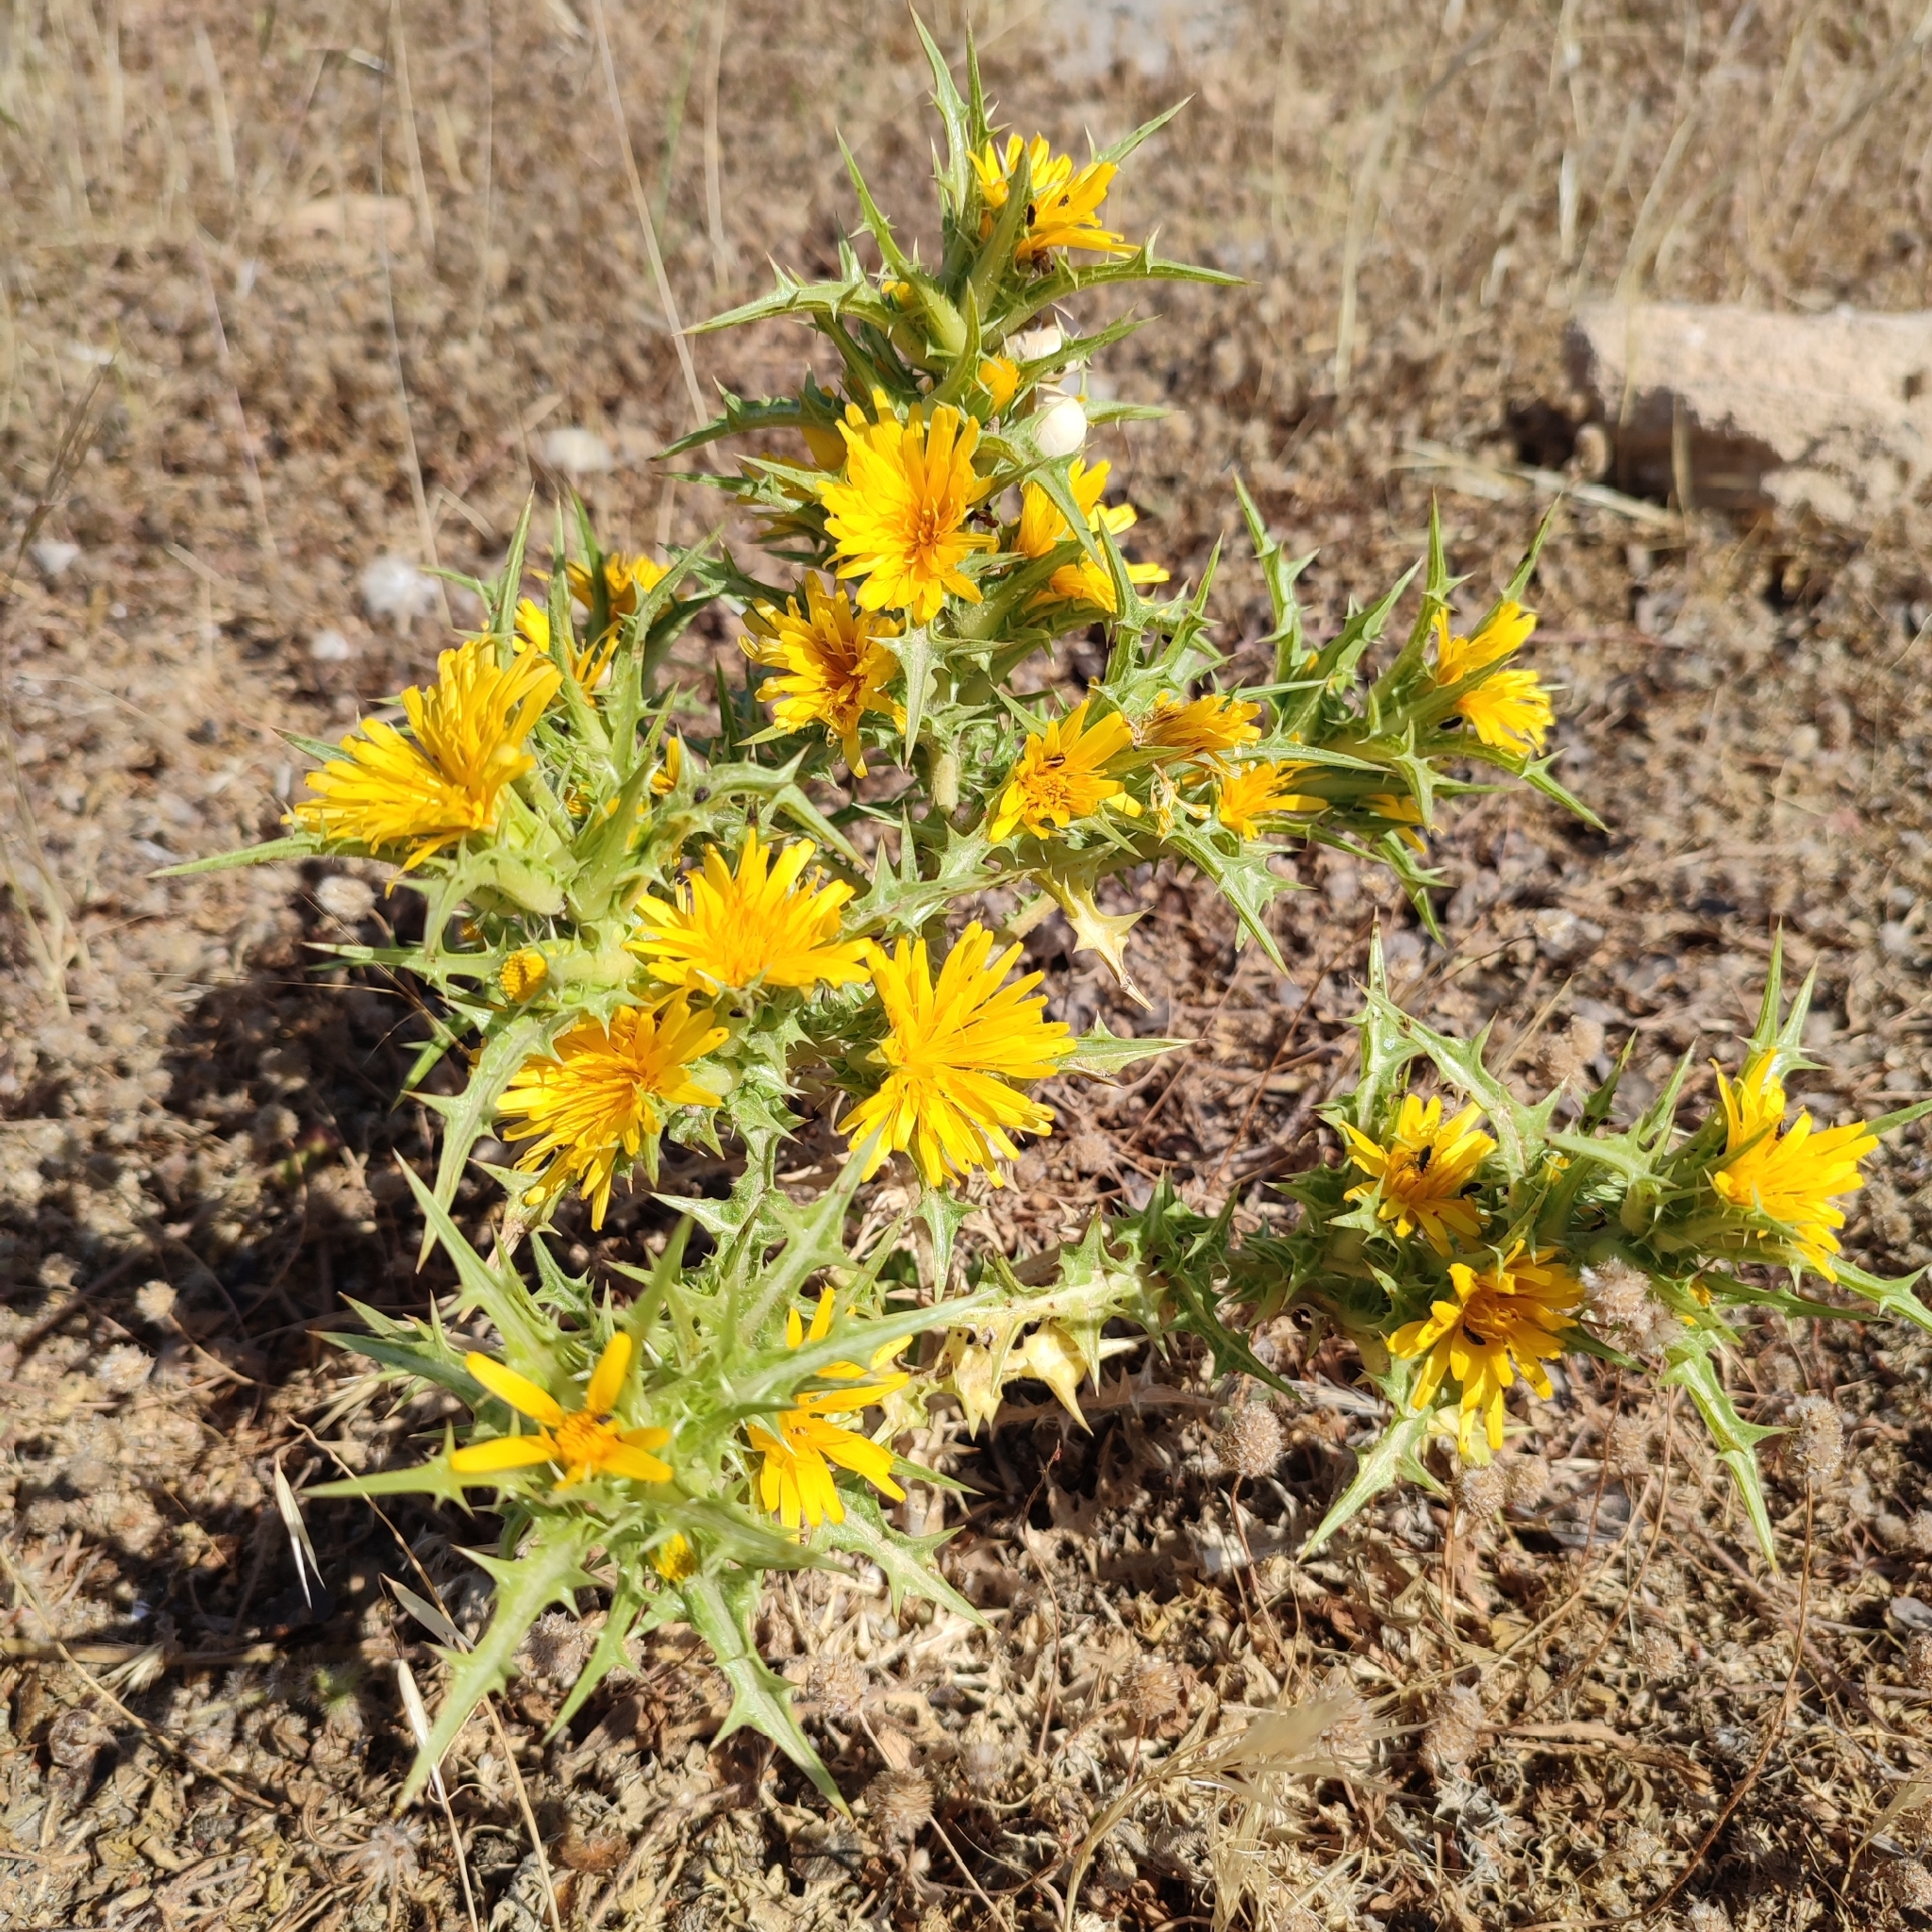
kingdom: Plantae
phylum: Tracheophyta
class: Magnoliopsida
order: Asterales
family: Asteraceae
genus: Scolymus
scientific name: Scolymus hispanicus
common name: Golden thistle
